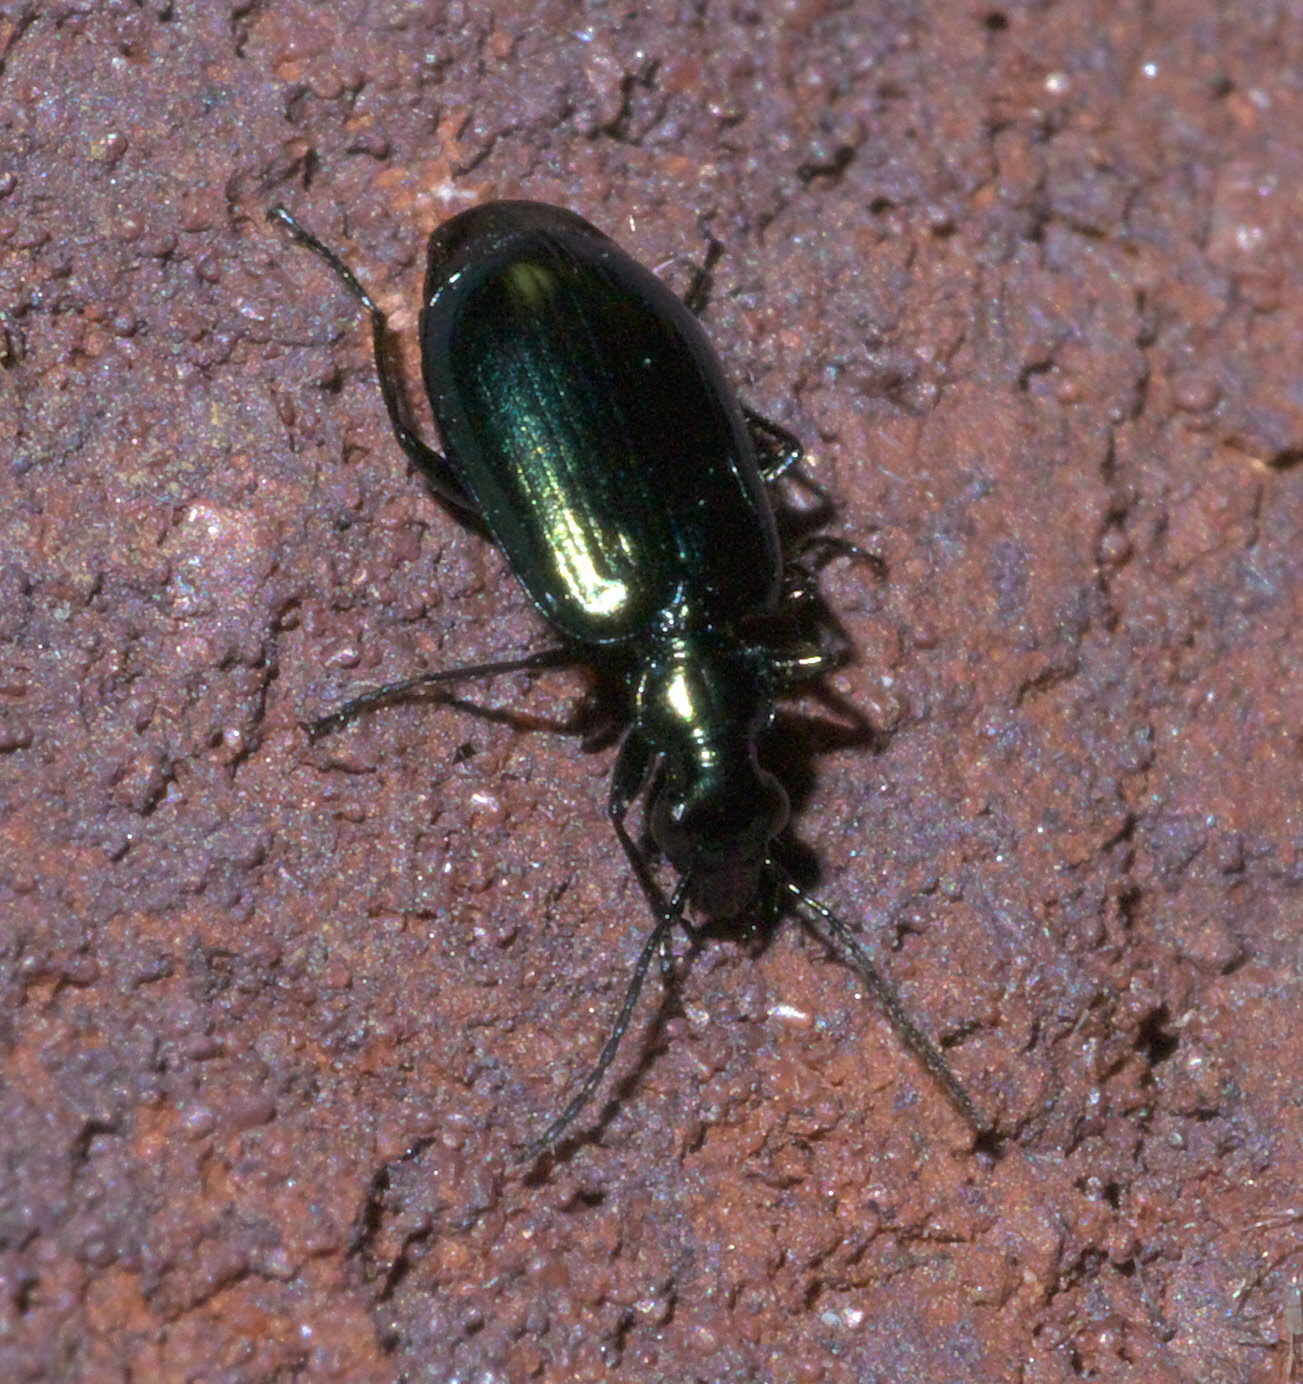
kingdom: Animalia
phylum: Arthropoda
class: Insecta
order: Coleoptera
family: Carabidae
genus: Lebia
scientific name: Lebia viridis
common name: Flower lebia beetle
